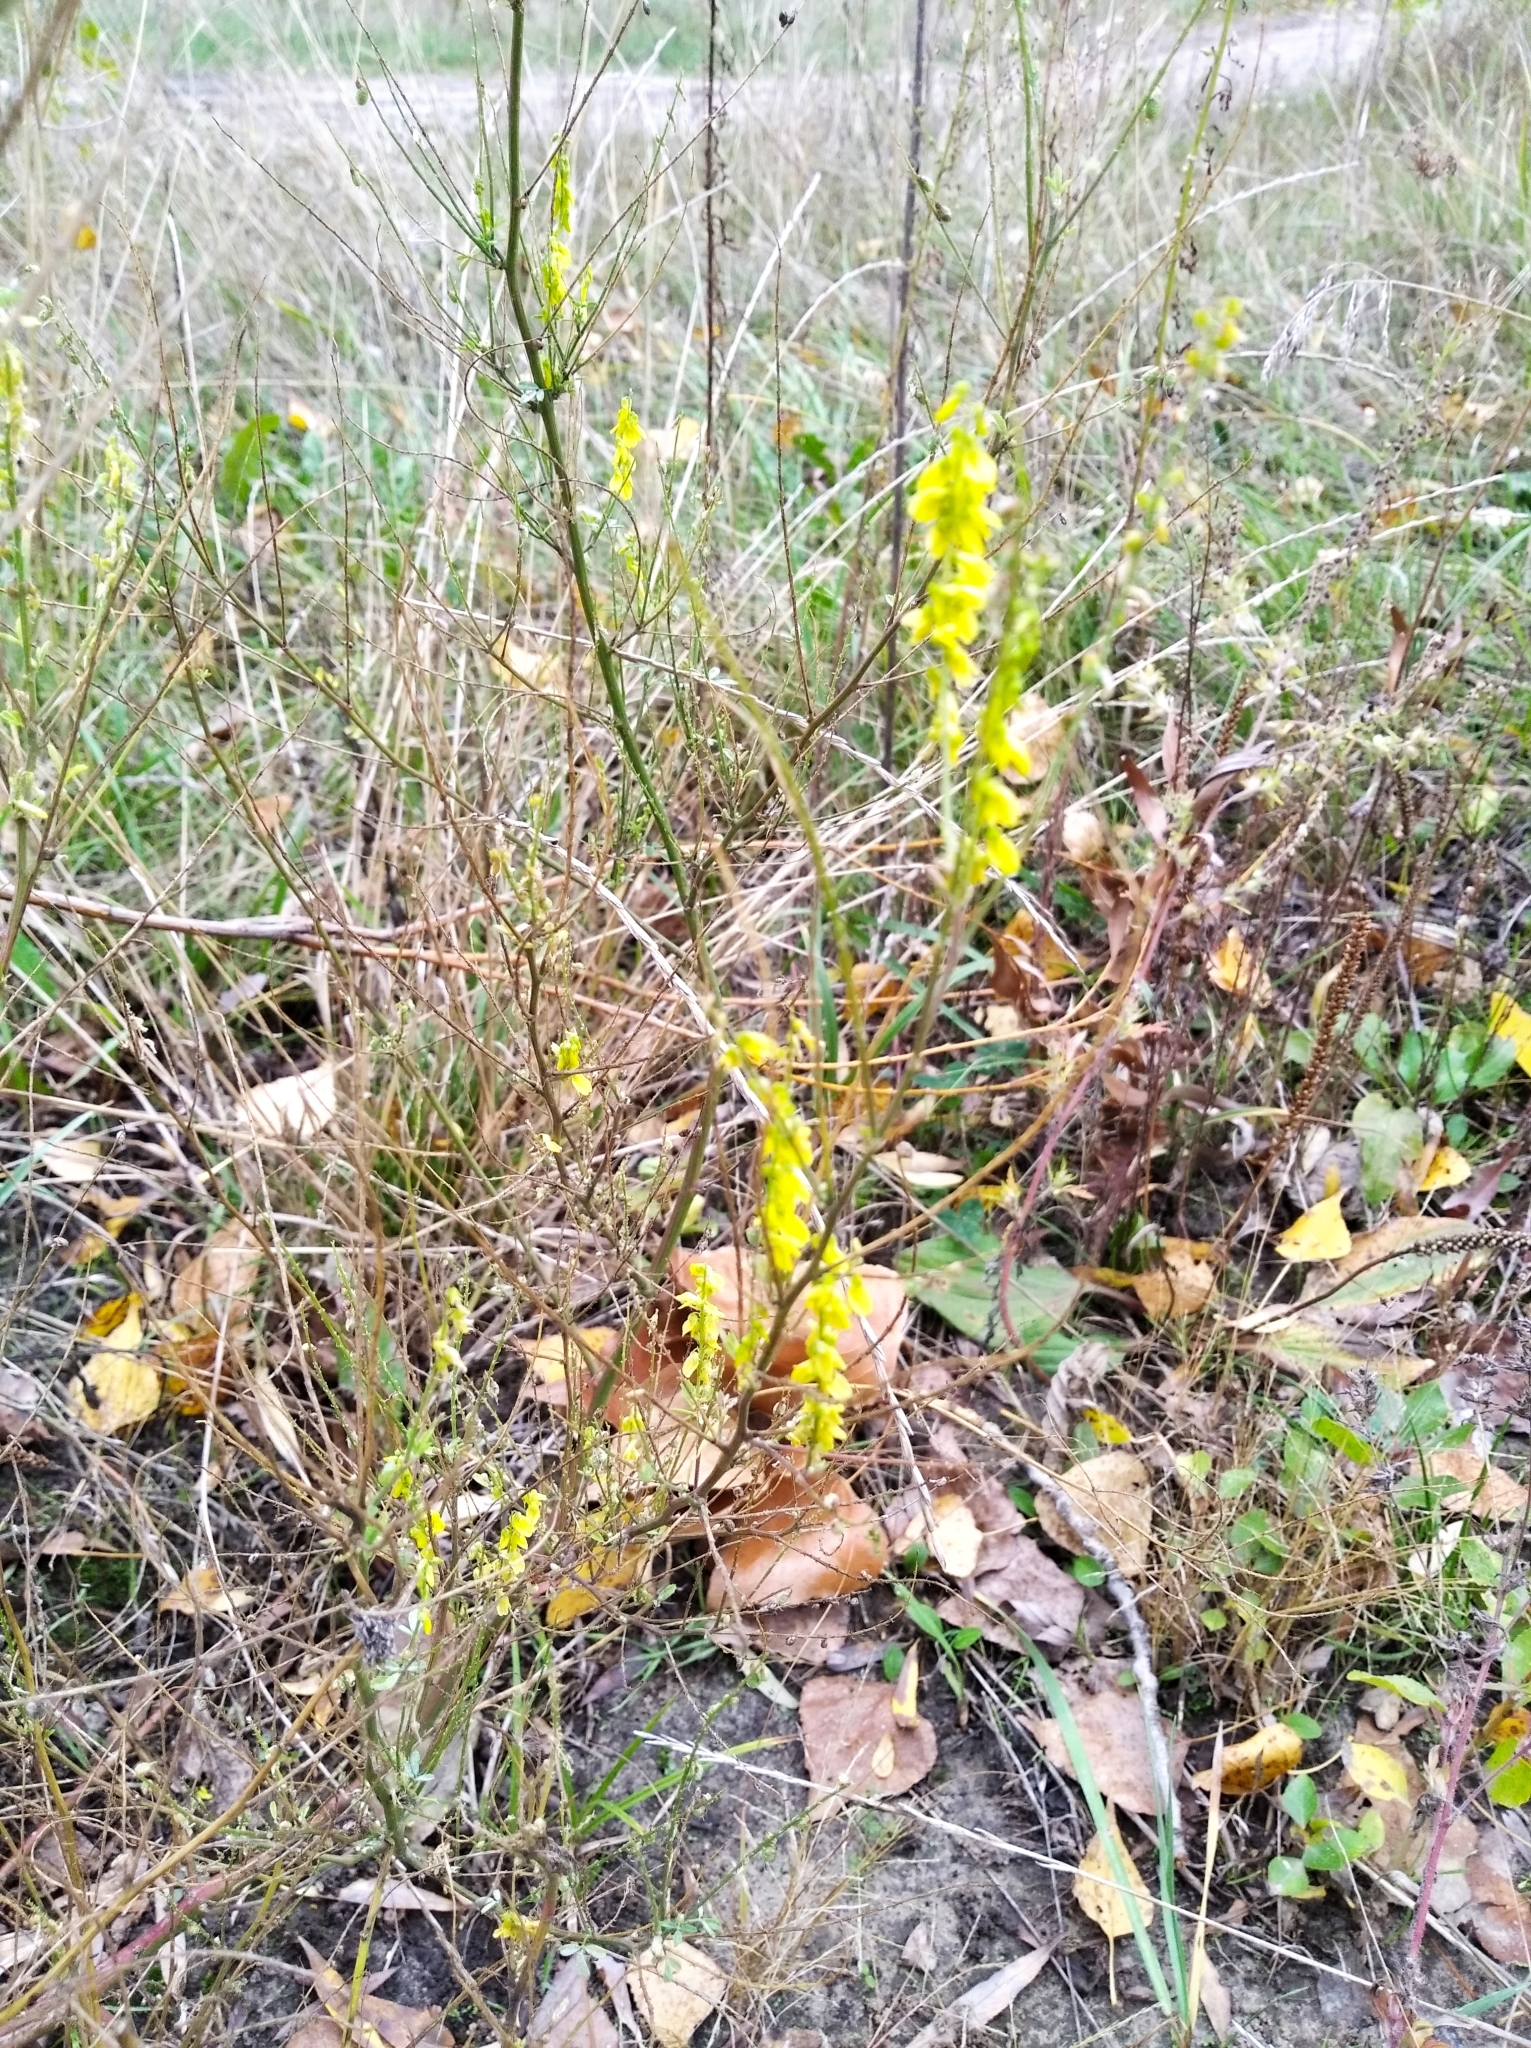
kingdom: Plantae
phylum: Tracheophyta
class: Magnoliopsida
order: Fabales
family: Fabaceae
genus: Melilotus
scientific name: Melilotus officinalis
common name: Sweetclover
